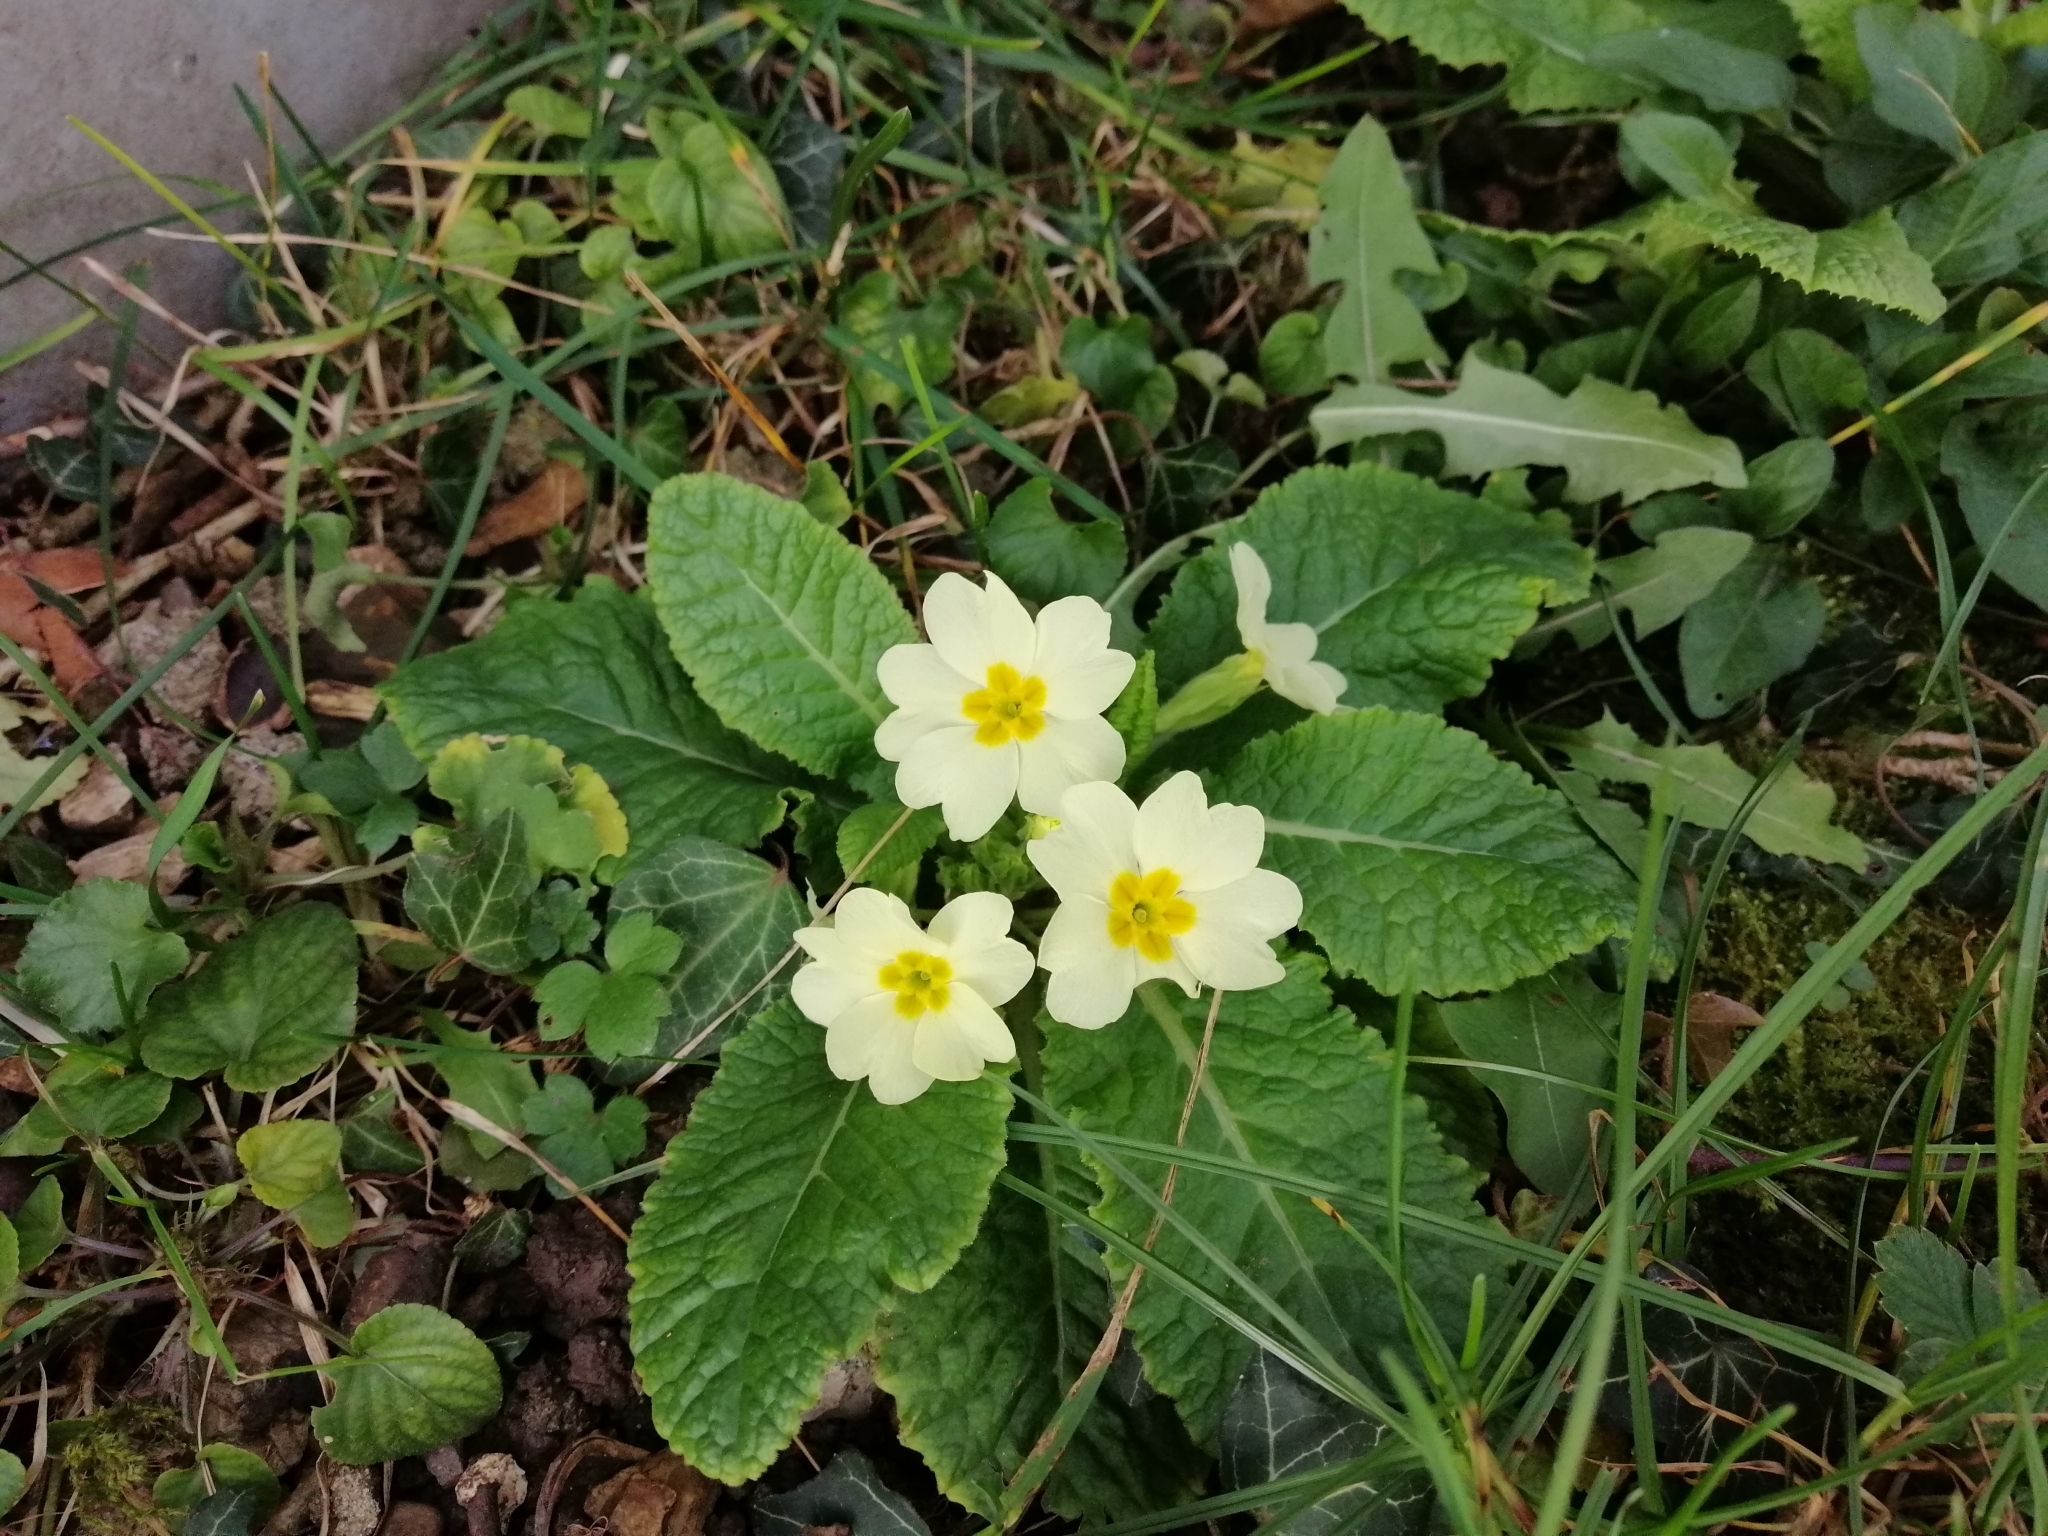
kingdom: Plantae
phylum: Tracheophyta
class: Magnoliopsida
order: Ericales
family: Primulaceae
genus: Primula
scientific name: Primula vulgaris
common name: Primrose
